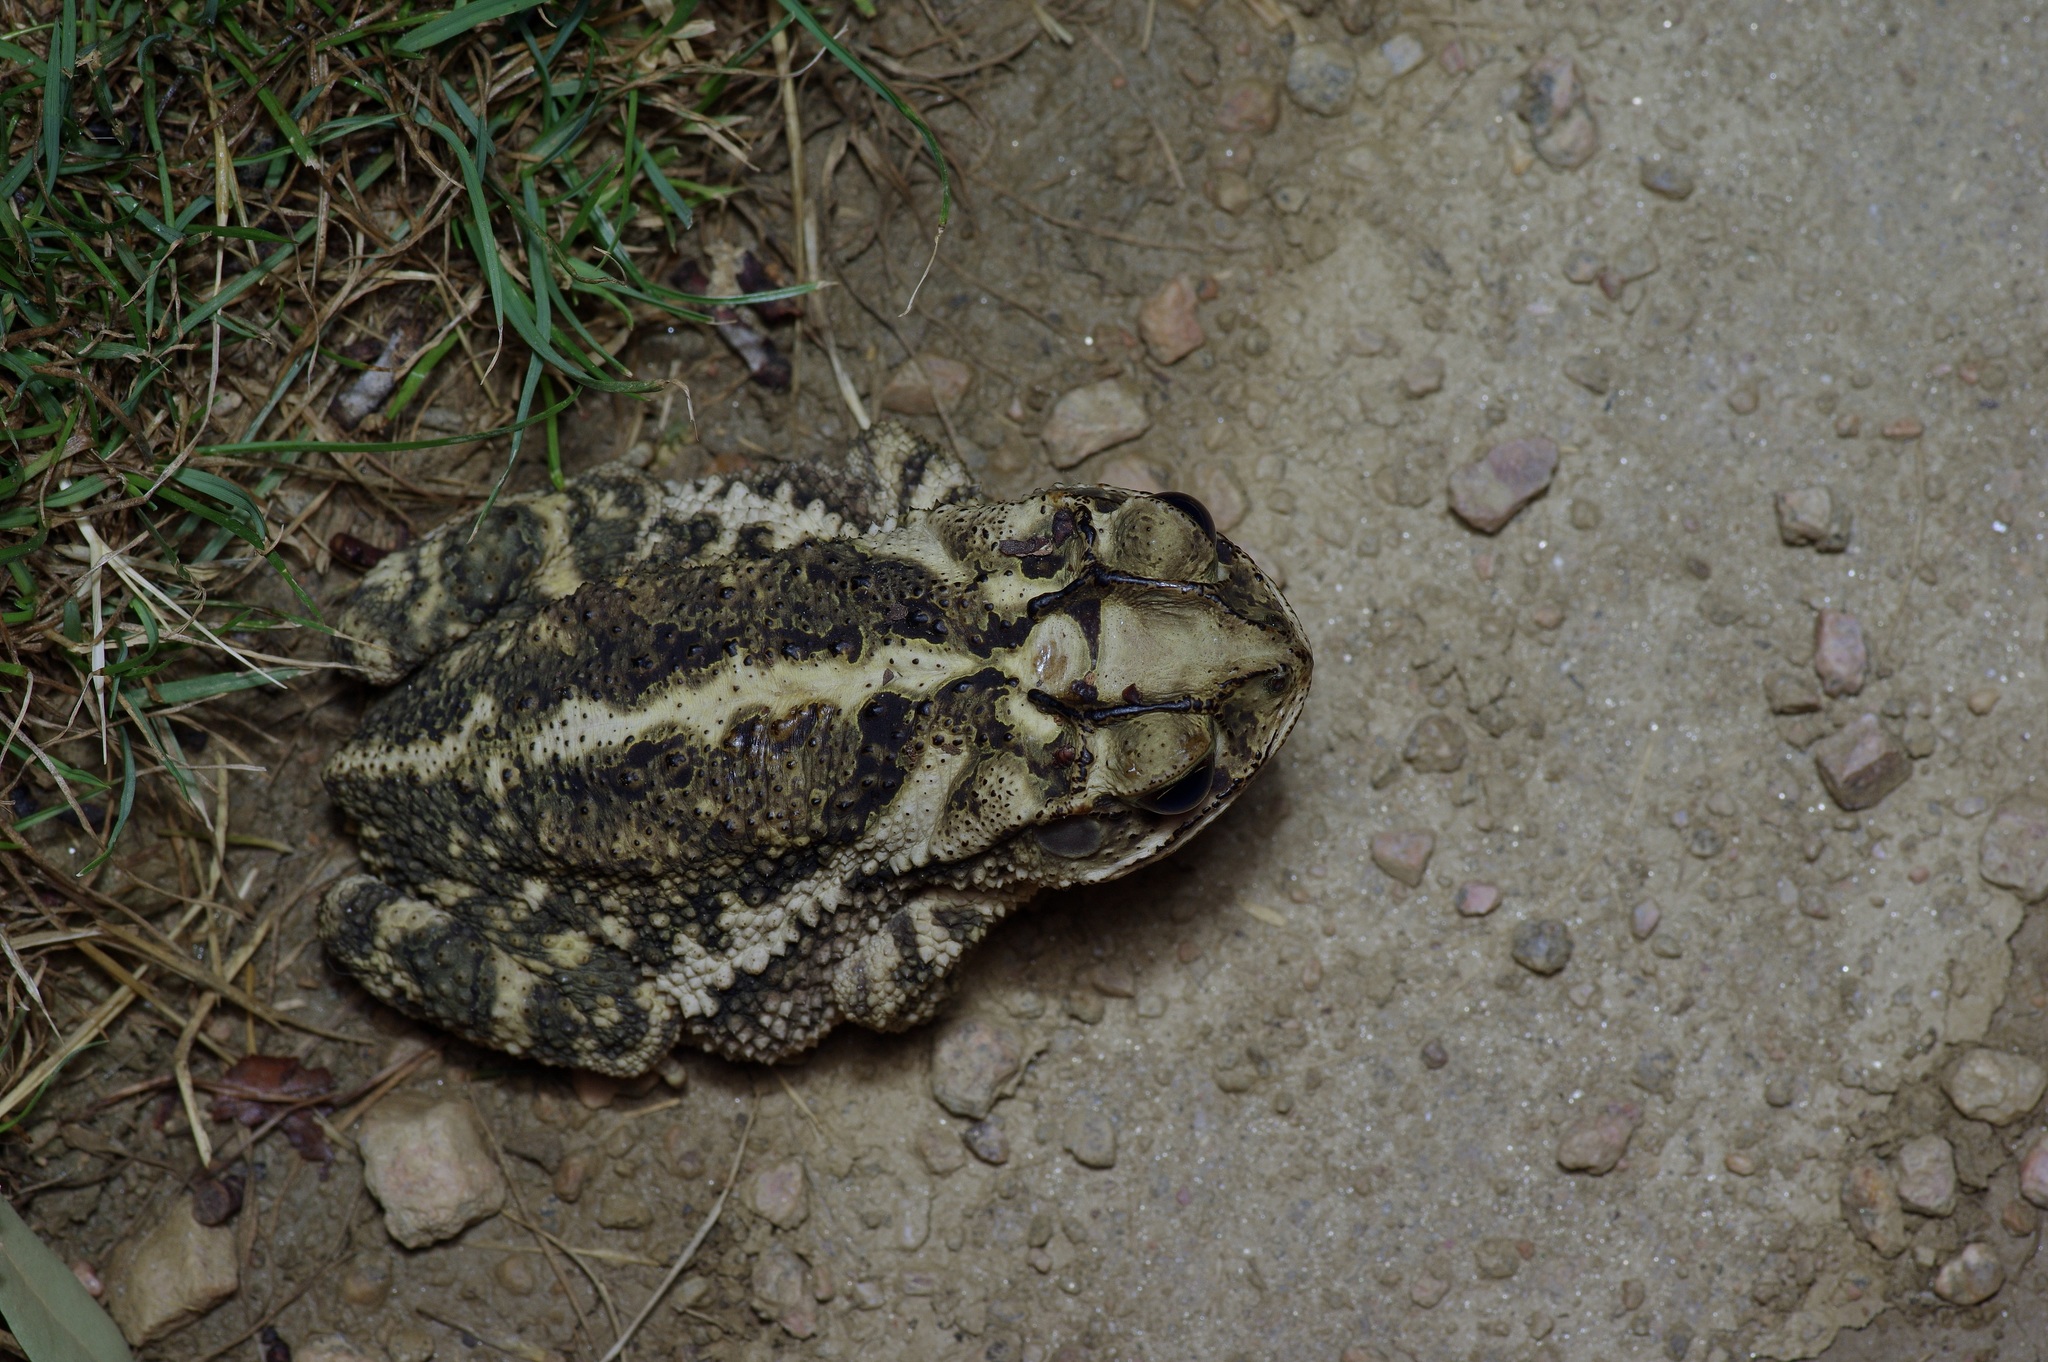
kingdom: Animalia
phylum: Chordata
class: Amphibia
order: Anura
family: Bufonidae
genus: Incilius
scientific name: Incilius nebulifer
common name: Gulf coast toad
